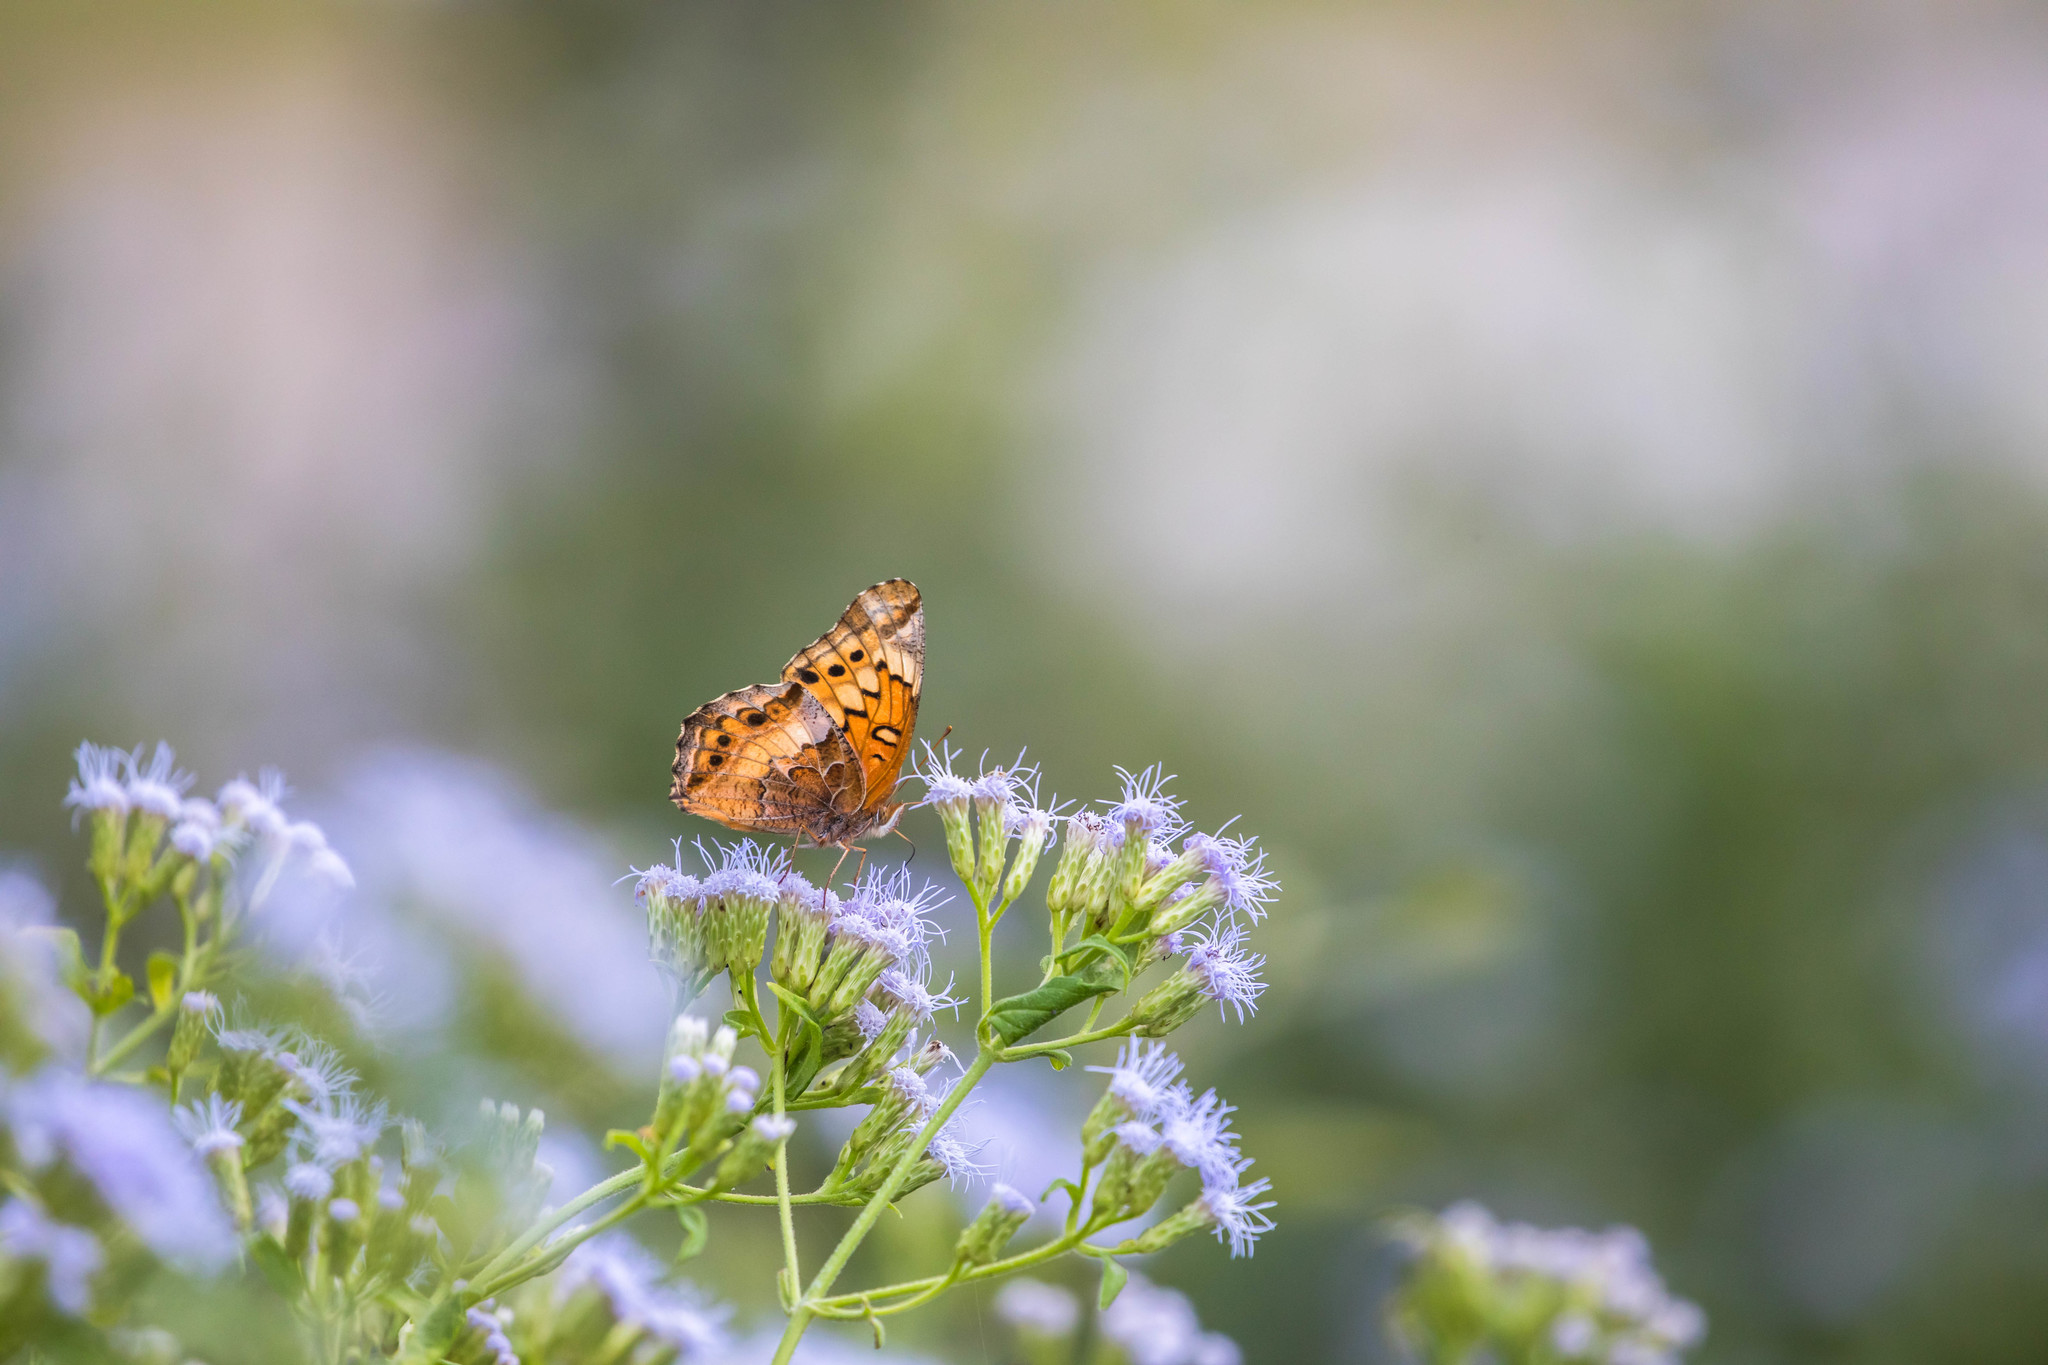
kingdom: Animalia
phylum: Arthropoda
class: Insecta
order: Lepidoptera
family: Nymphalidae
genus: Euptoieta
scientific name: Euptoieta claudia
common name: Variegated fritillary
